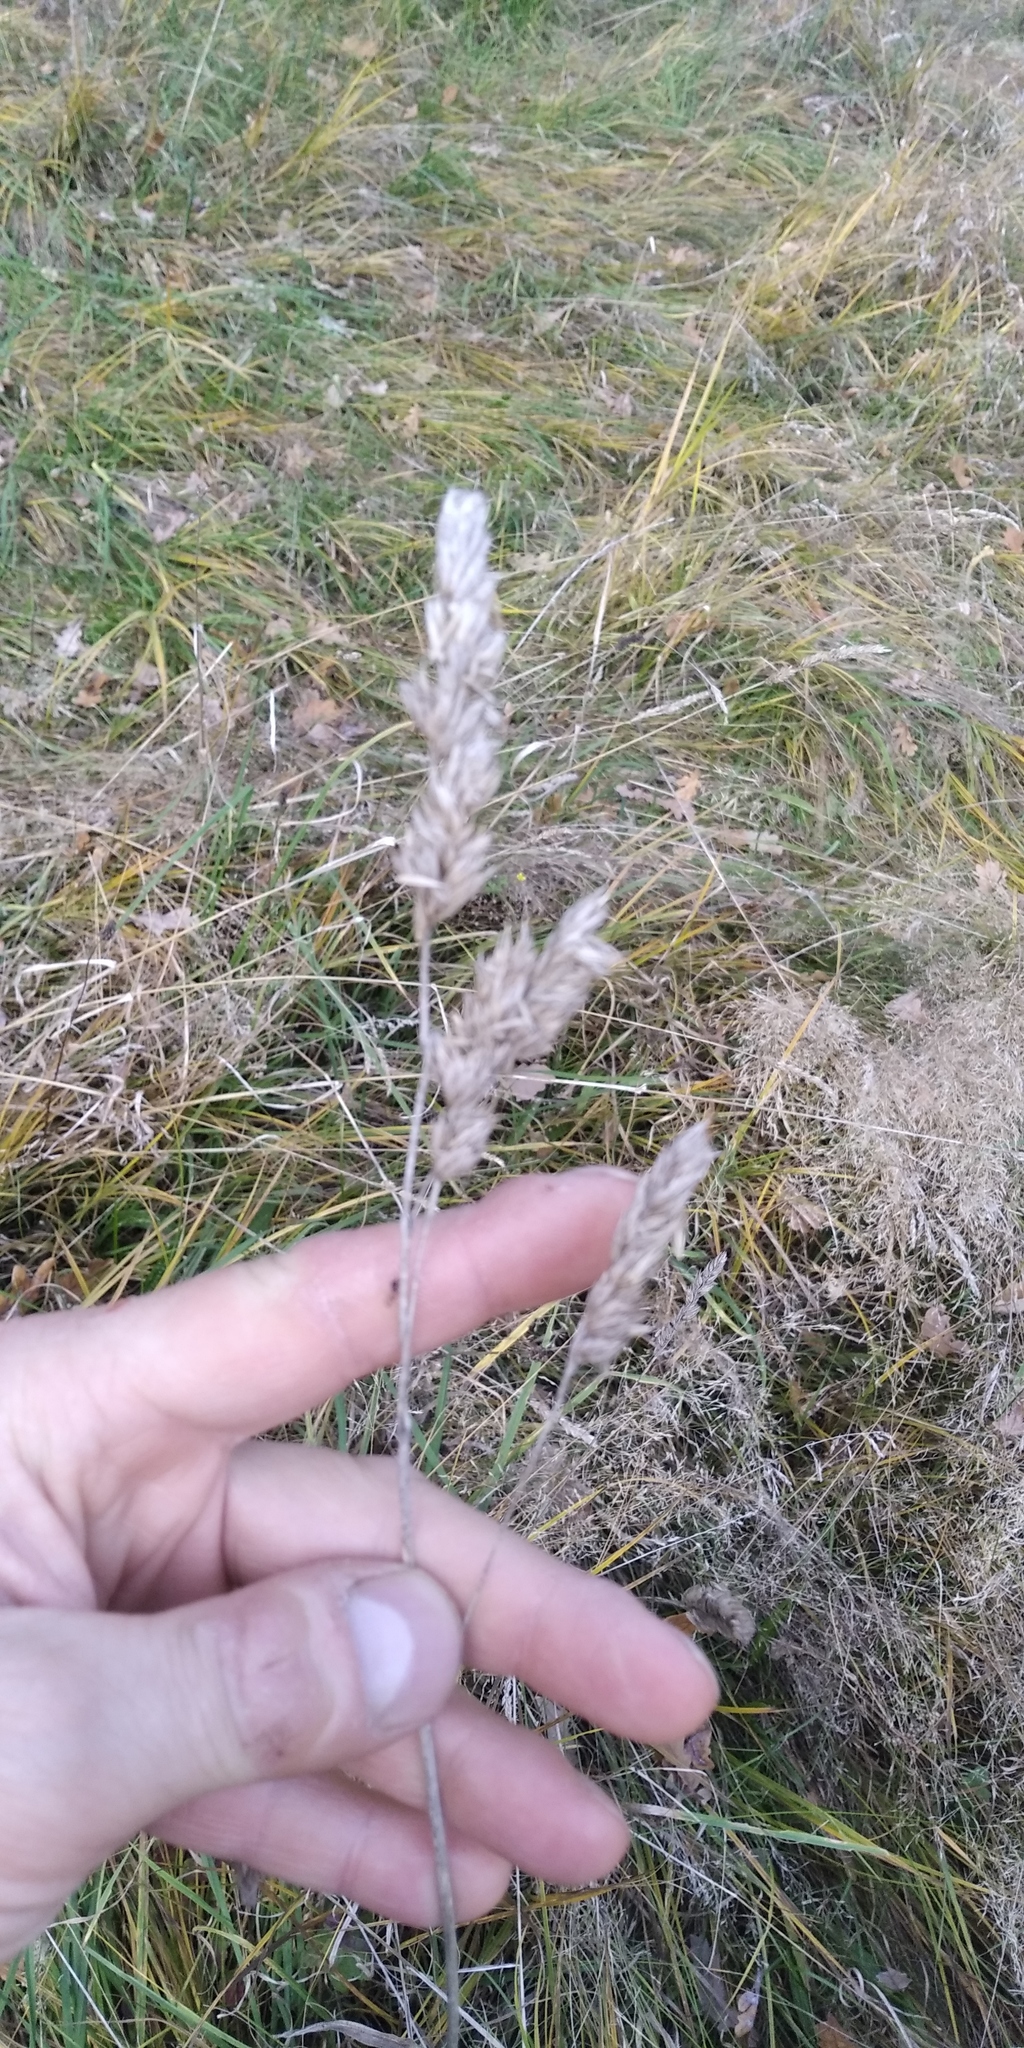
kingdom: Plantae
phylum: Tracheophyta
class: Liliopsida
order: Poales
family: Poaceae
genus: Dactylis
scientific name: Dactylis glomerata
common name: Orchardgrass
